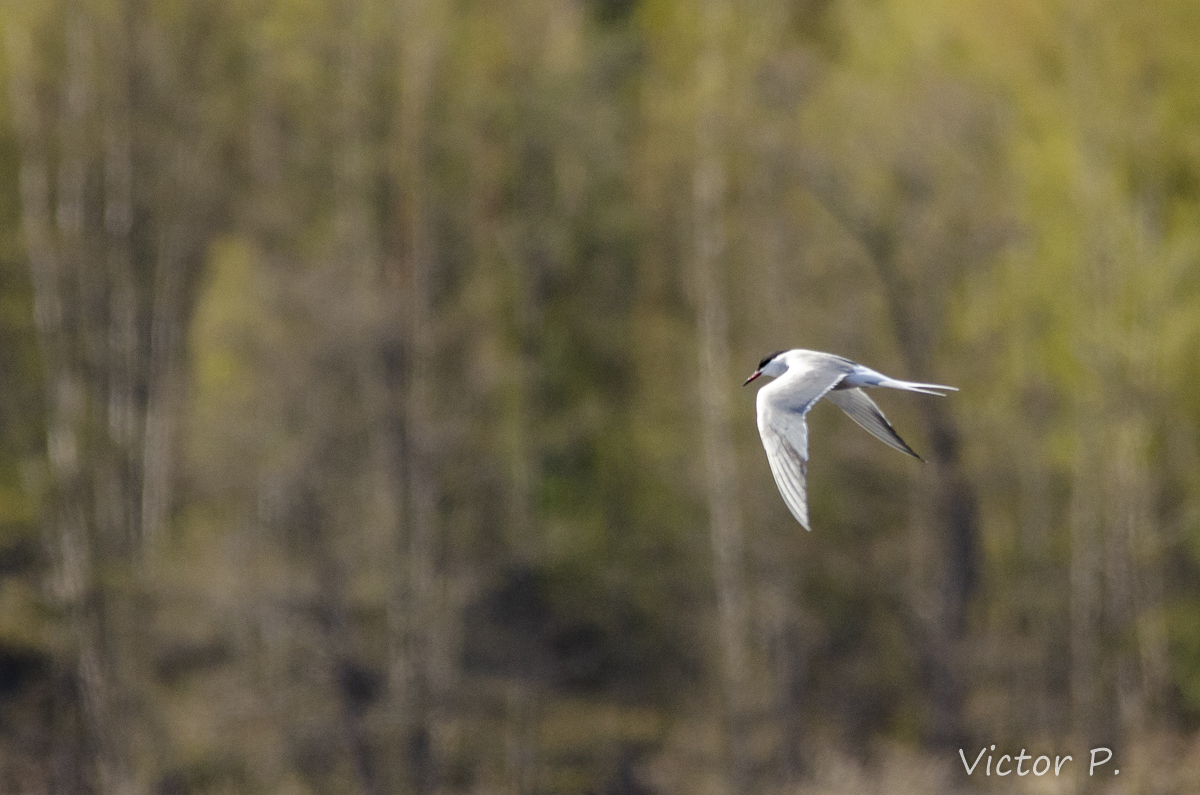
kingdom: Animalia
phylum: Chordata
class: Aves
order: Charadriiformes
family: Laridae
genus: Sterna
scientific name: Sterna hirundo
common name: Common tern
